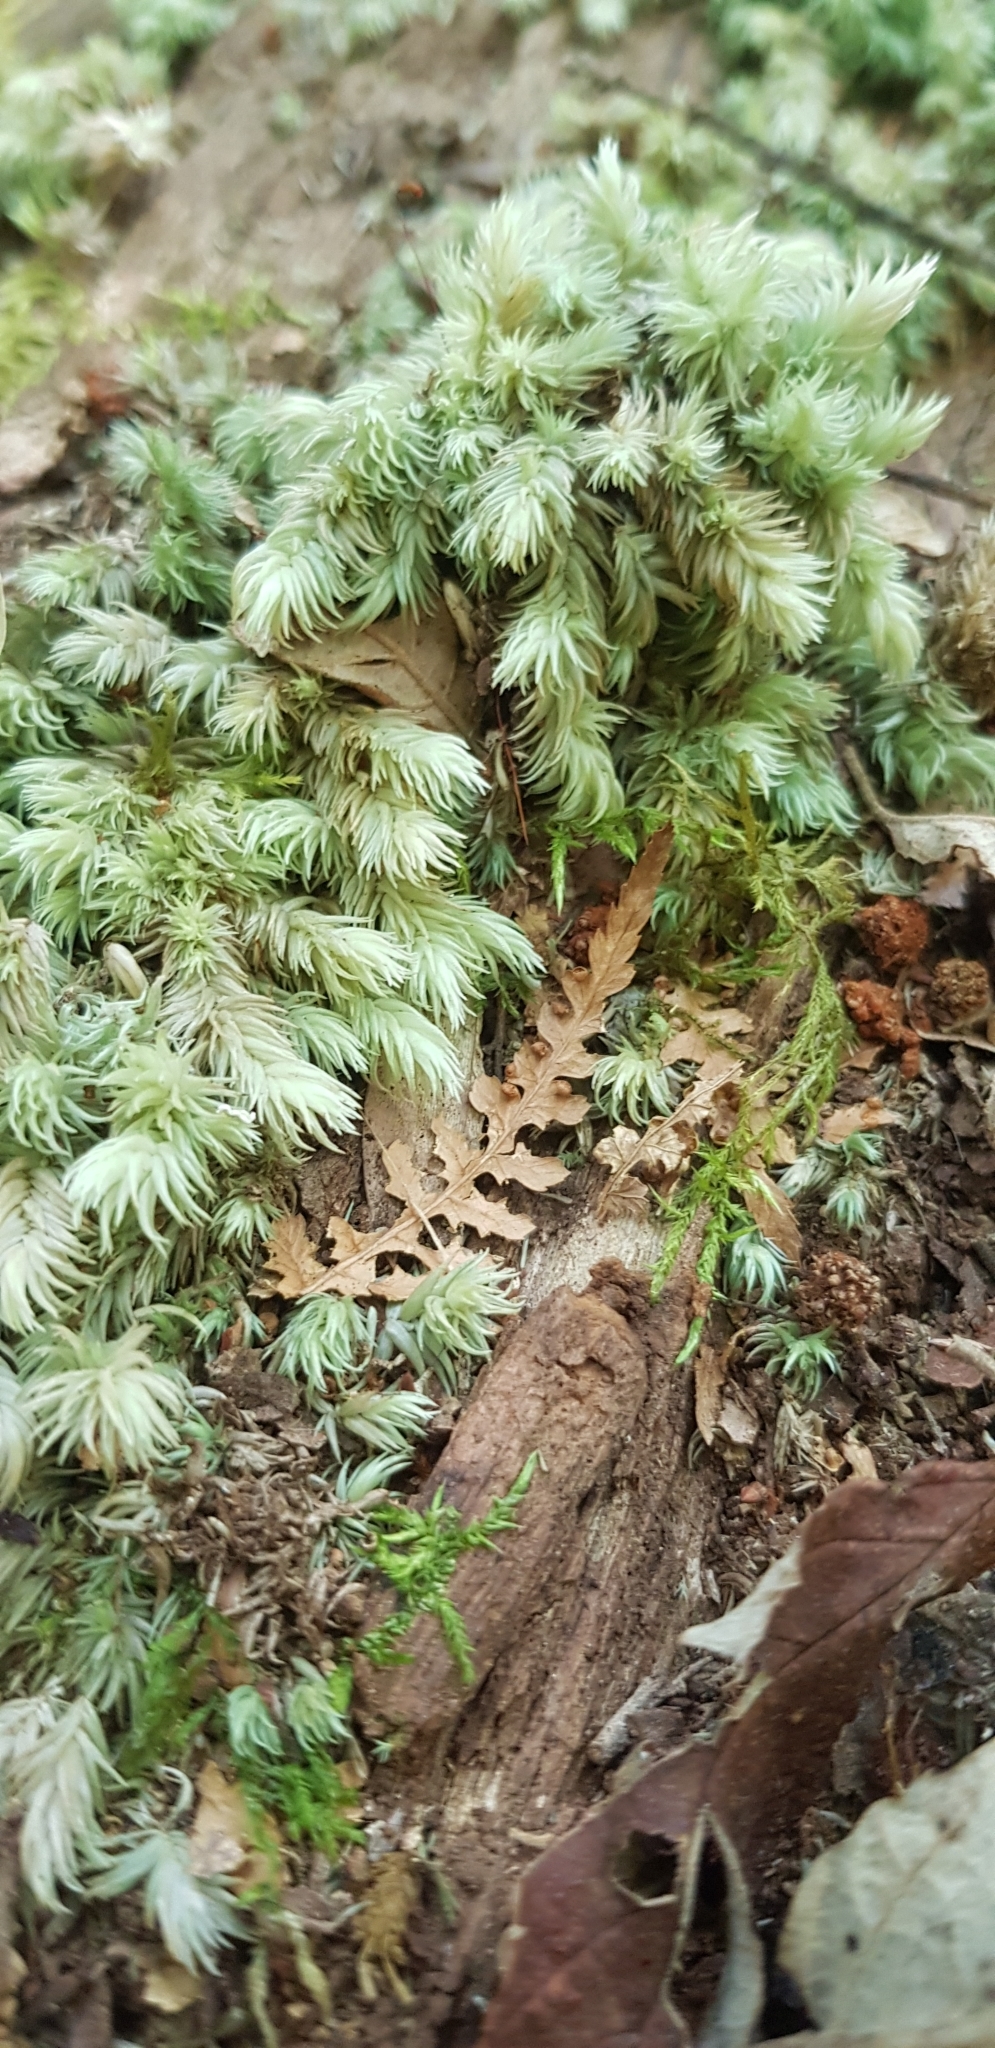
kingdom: Plantae
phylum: Bryophyta
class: Bryopsida
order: Dicranales
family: Leucobryaceae
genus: Leucobryum
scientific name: Leucobryum javense
